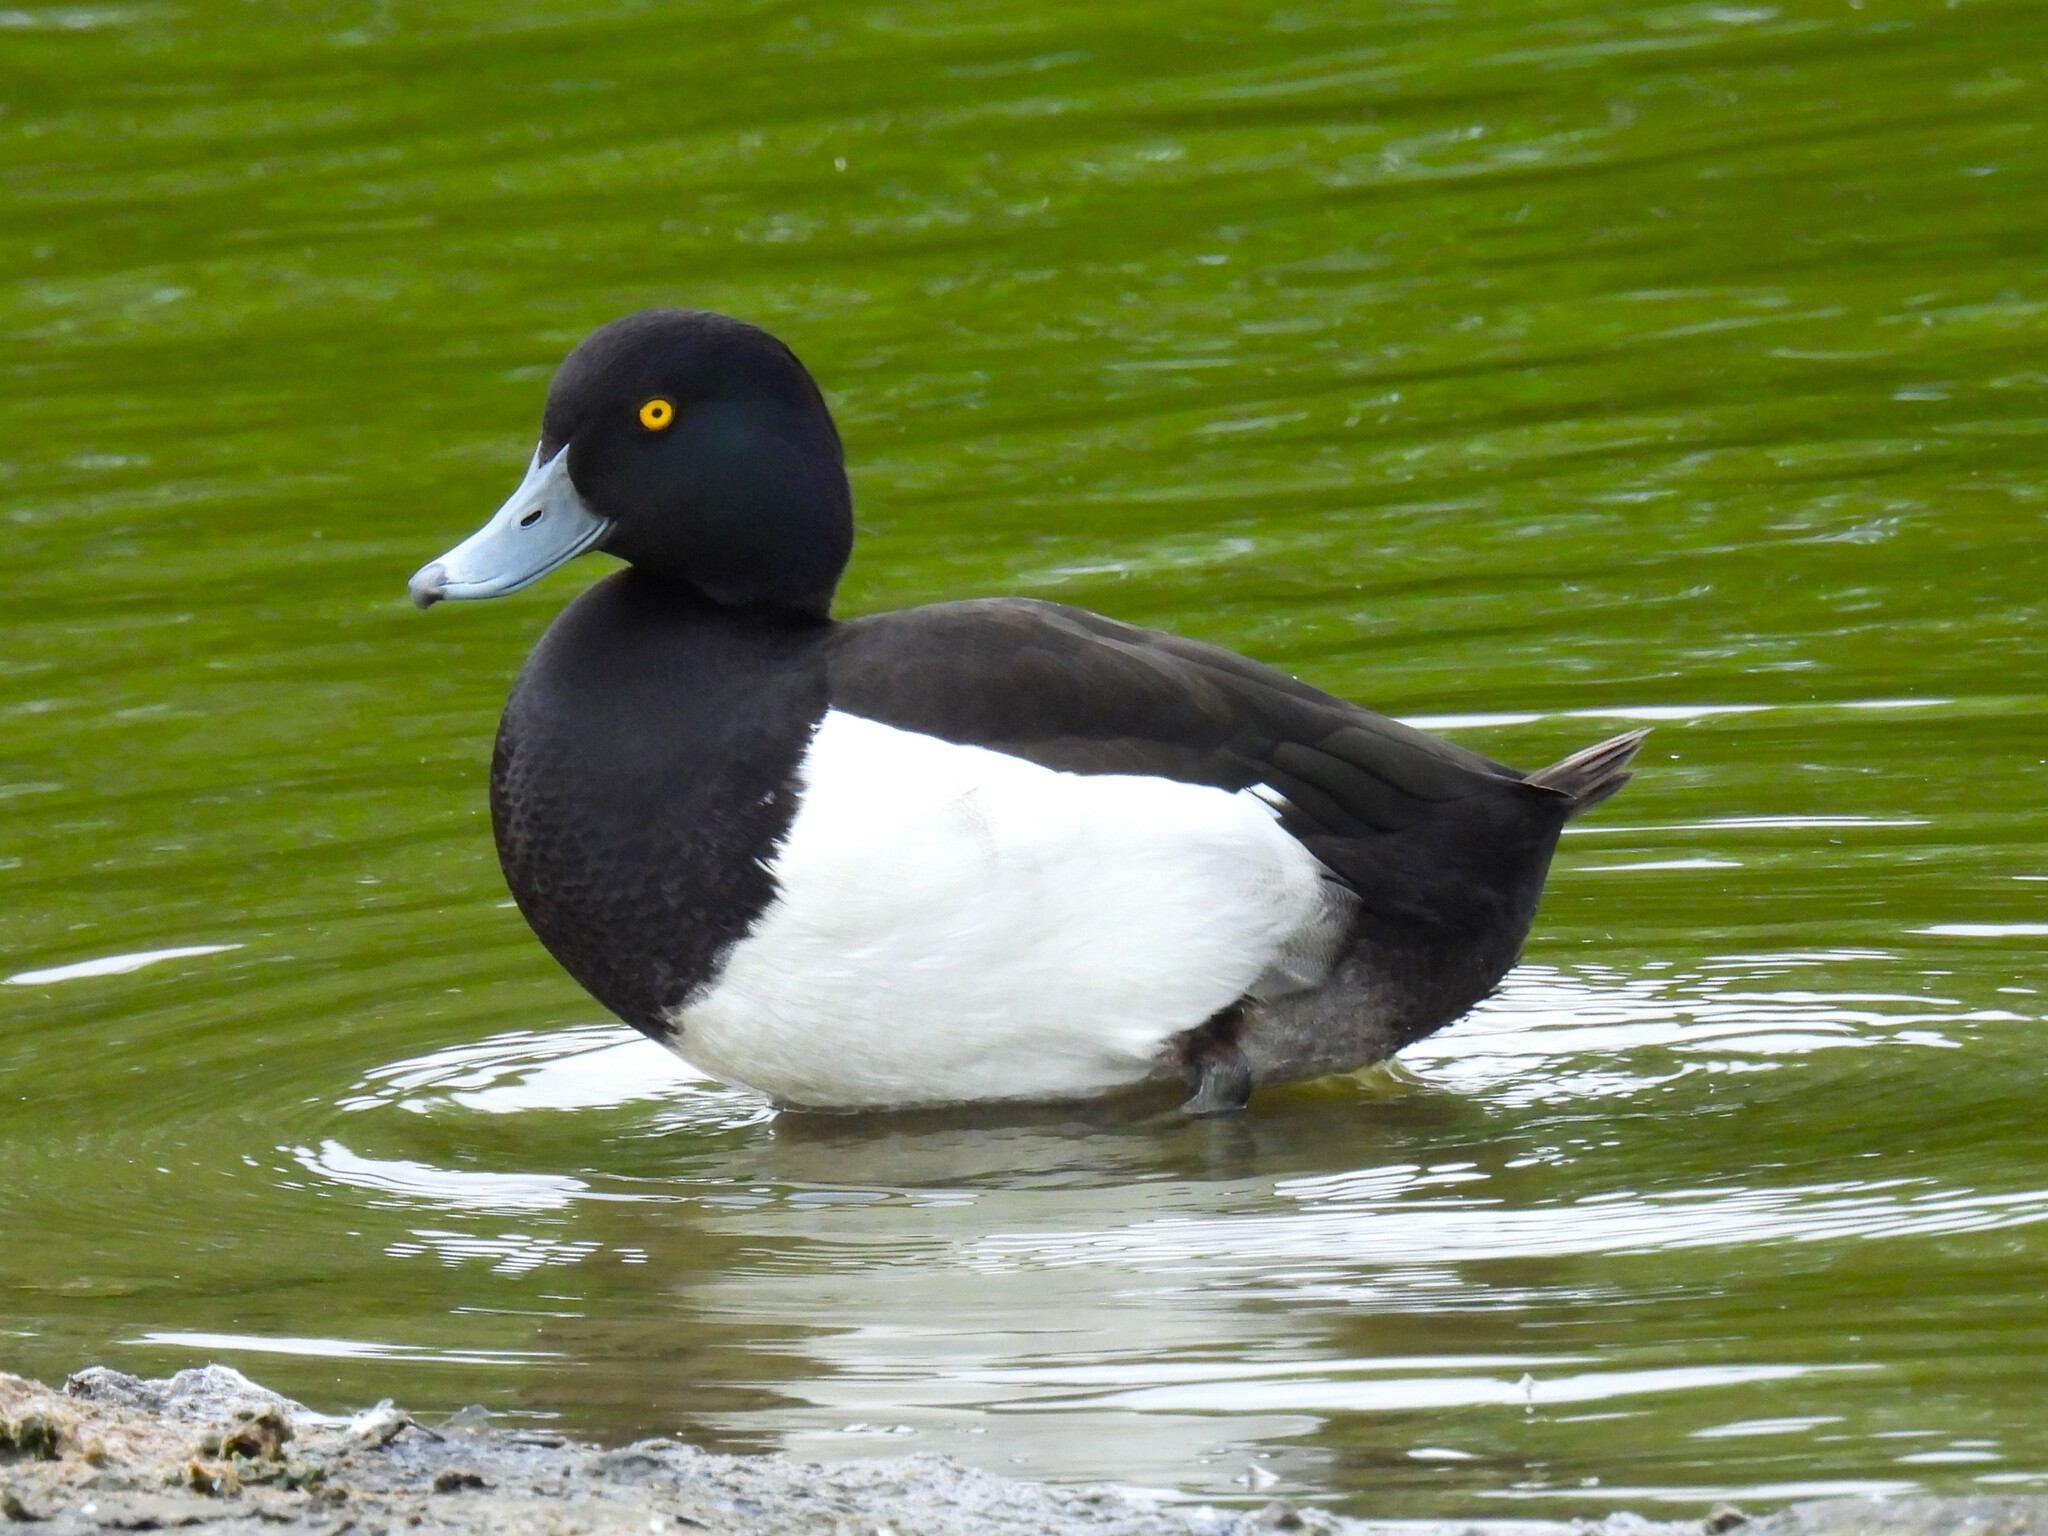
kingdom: Animalia
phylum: Chordata
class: Aves
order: Anseriformes
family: Anatidae
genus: Aythya
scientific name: Aythya fuligula
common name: Tufted duck
